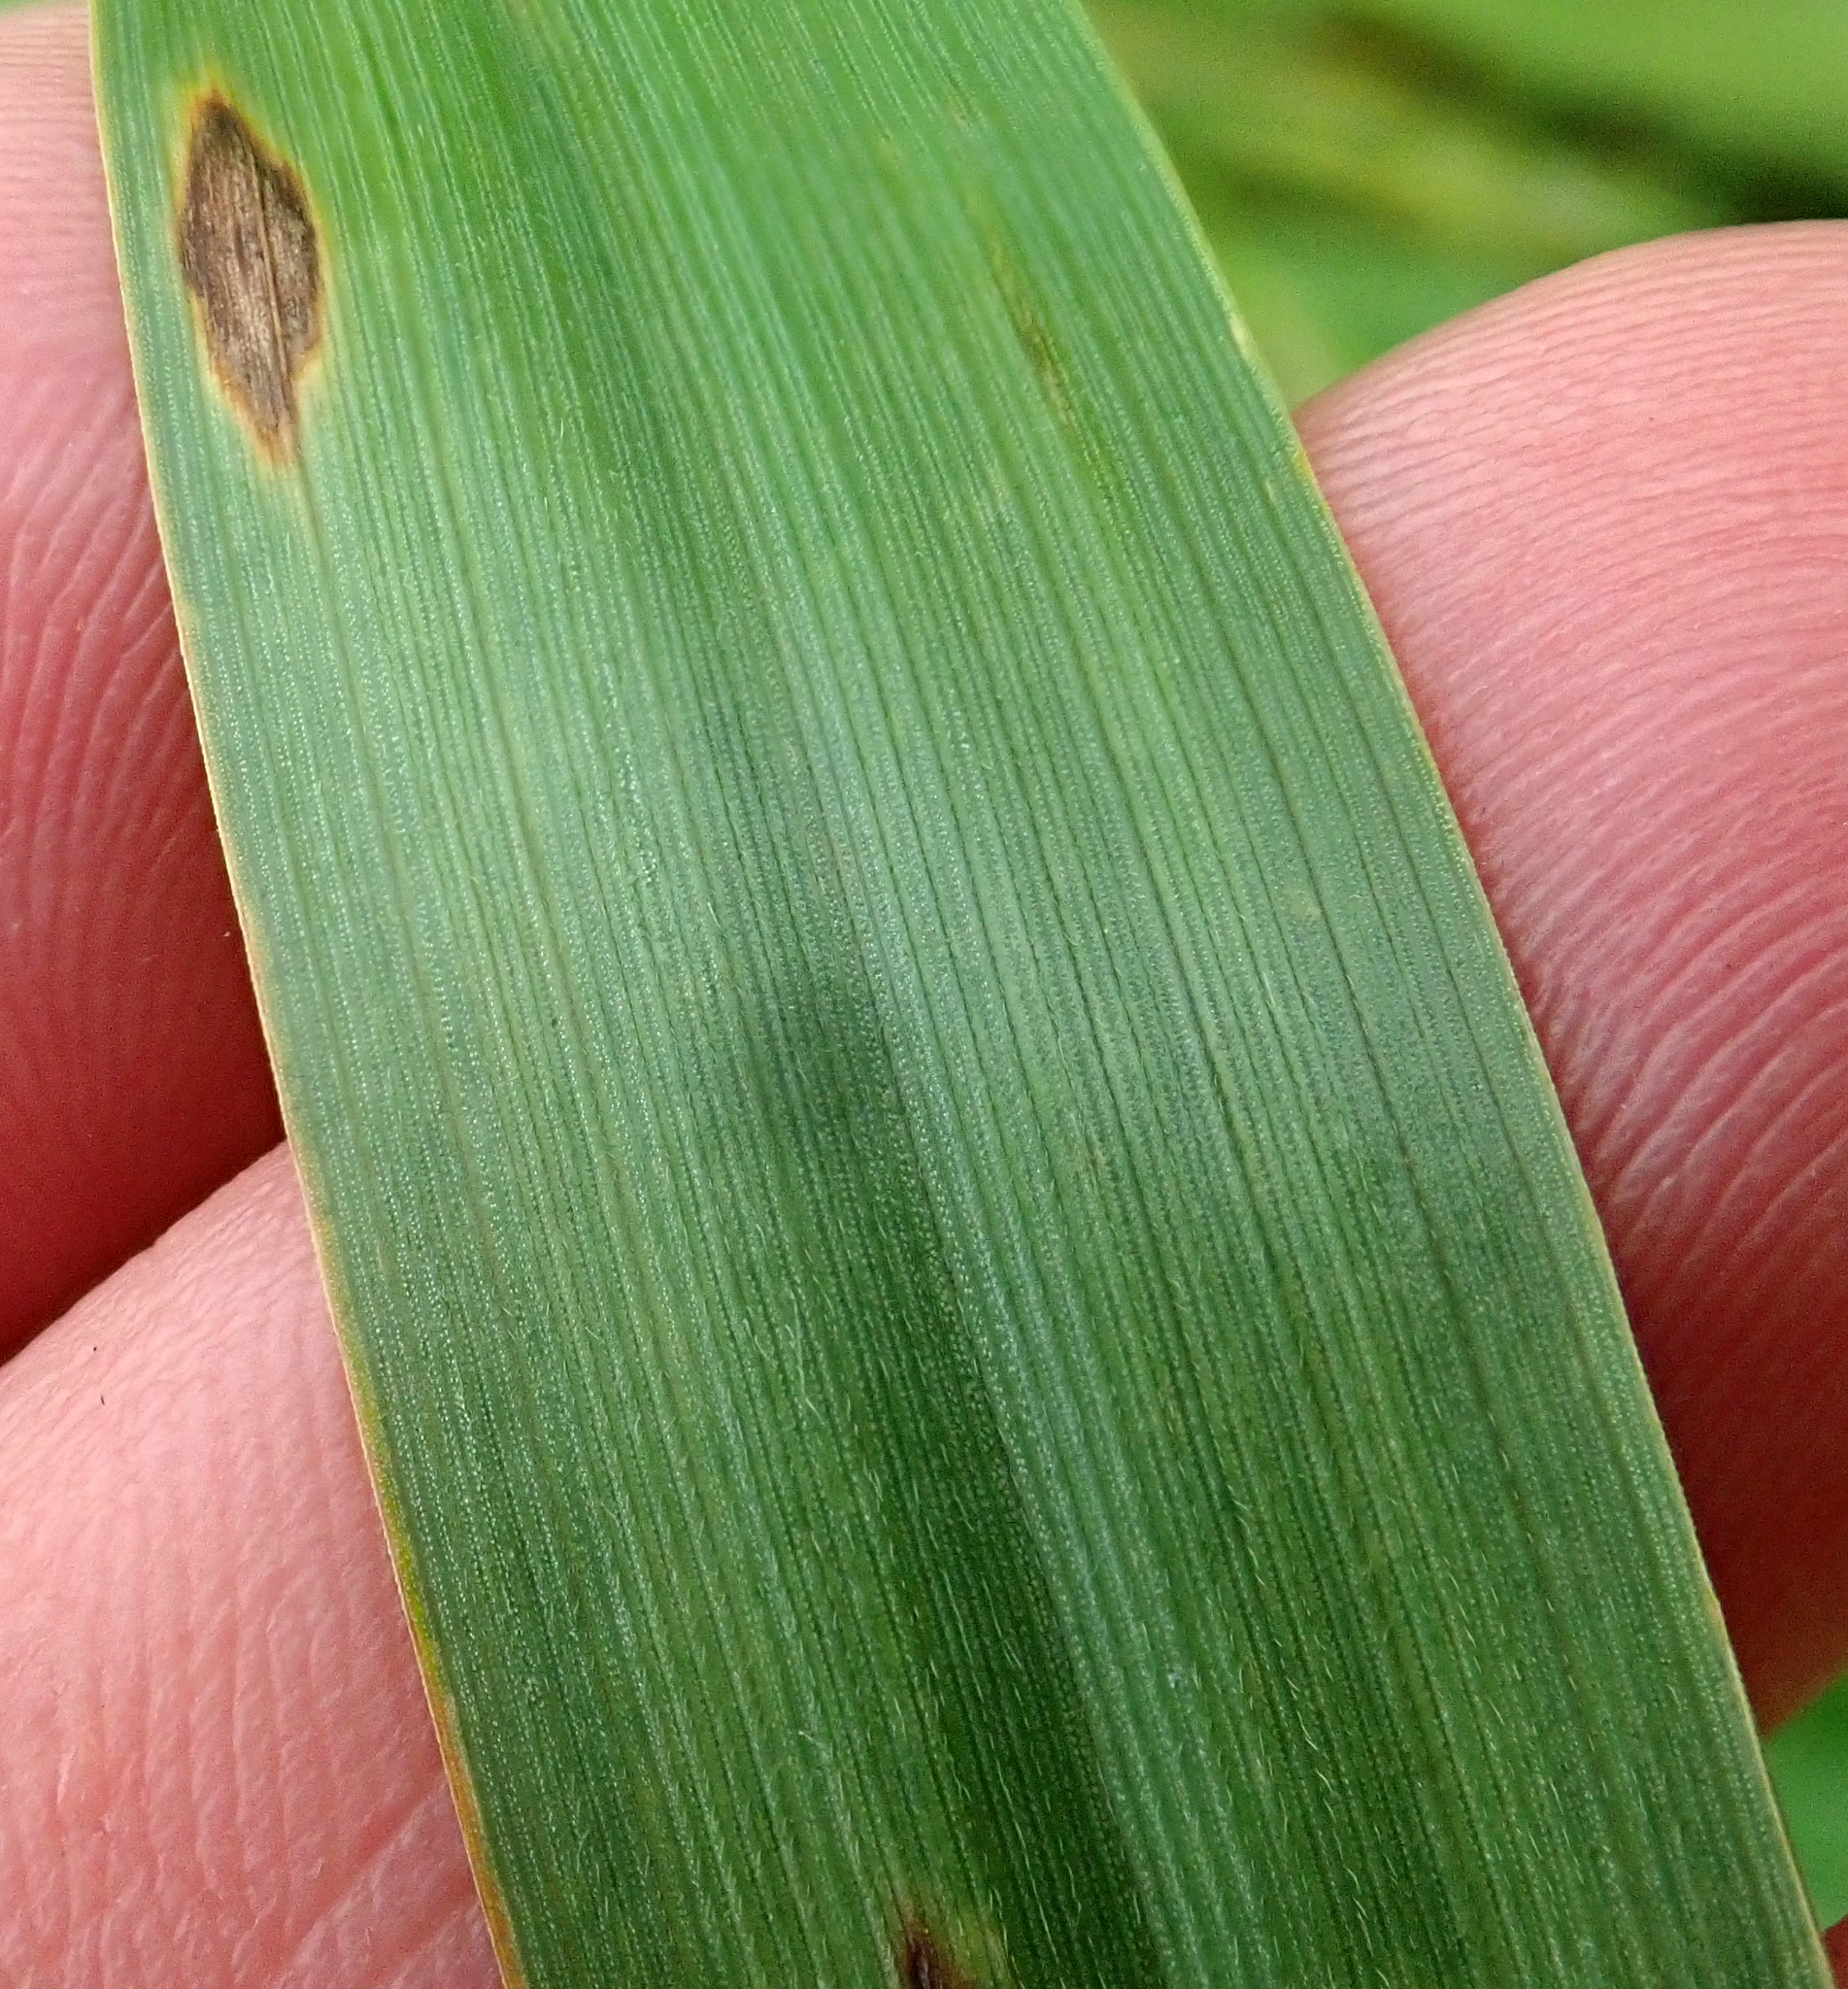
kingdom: Plantae
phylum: Tracheophyta
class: Liliopsida
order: Poales
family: Poaceae
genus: Bromus
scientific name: Bromus catharticus
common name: Rescuegrass
